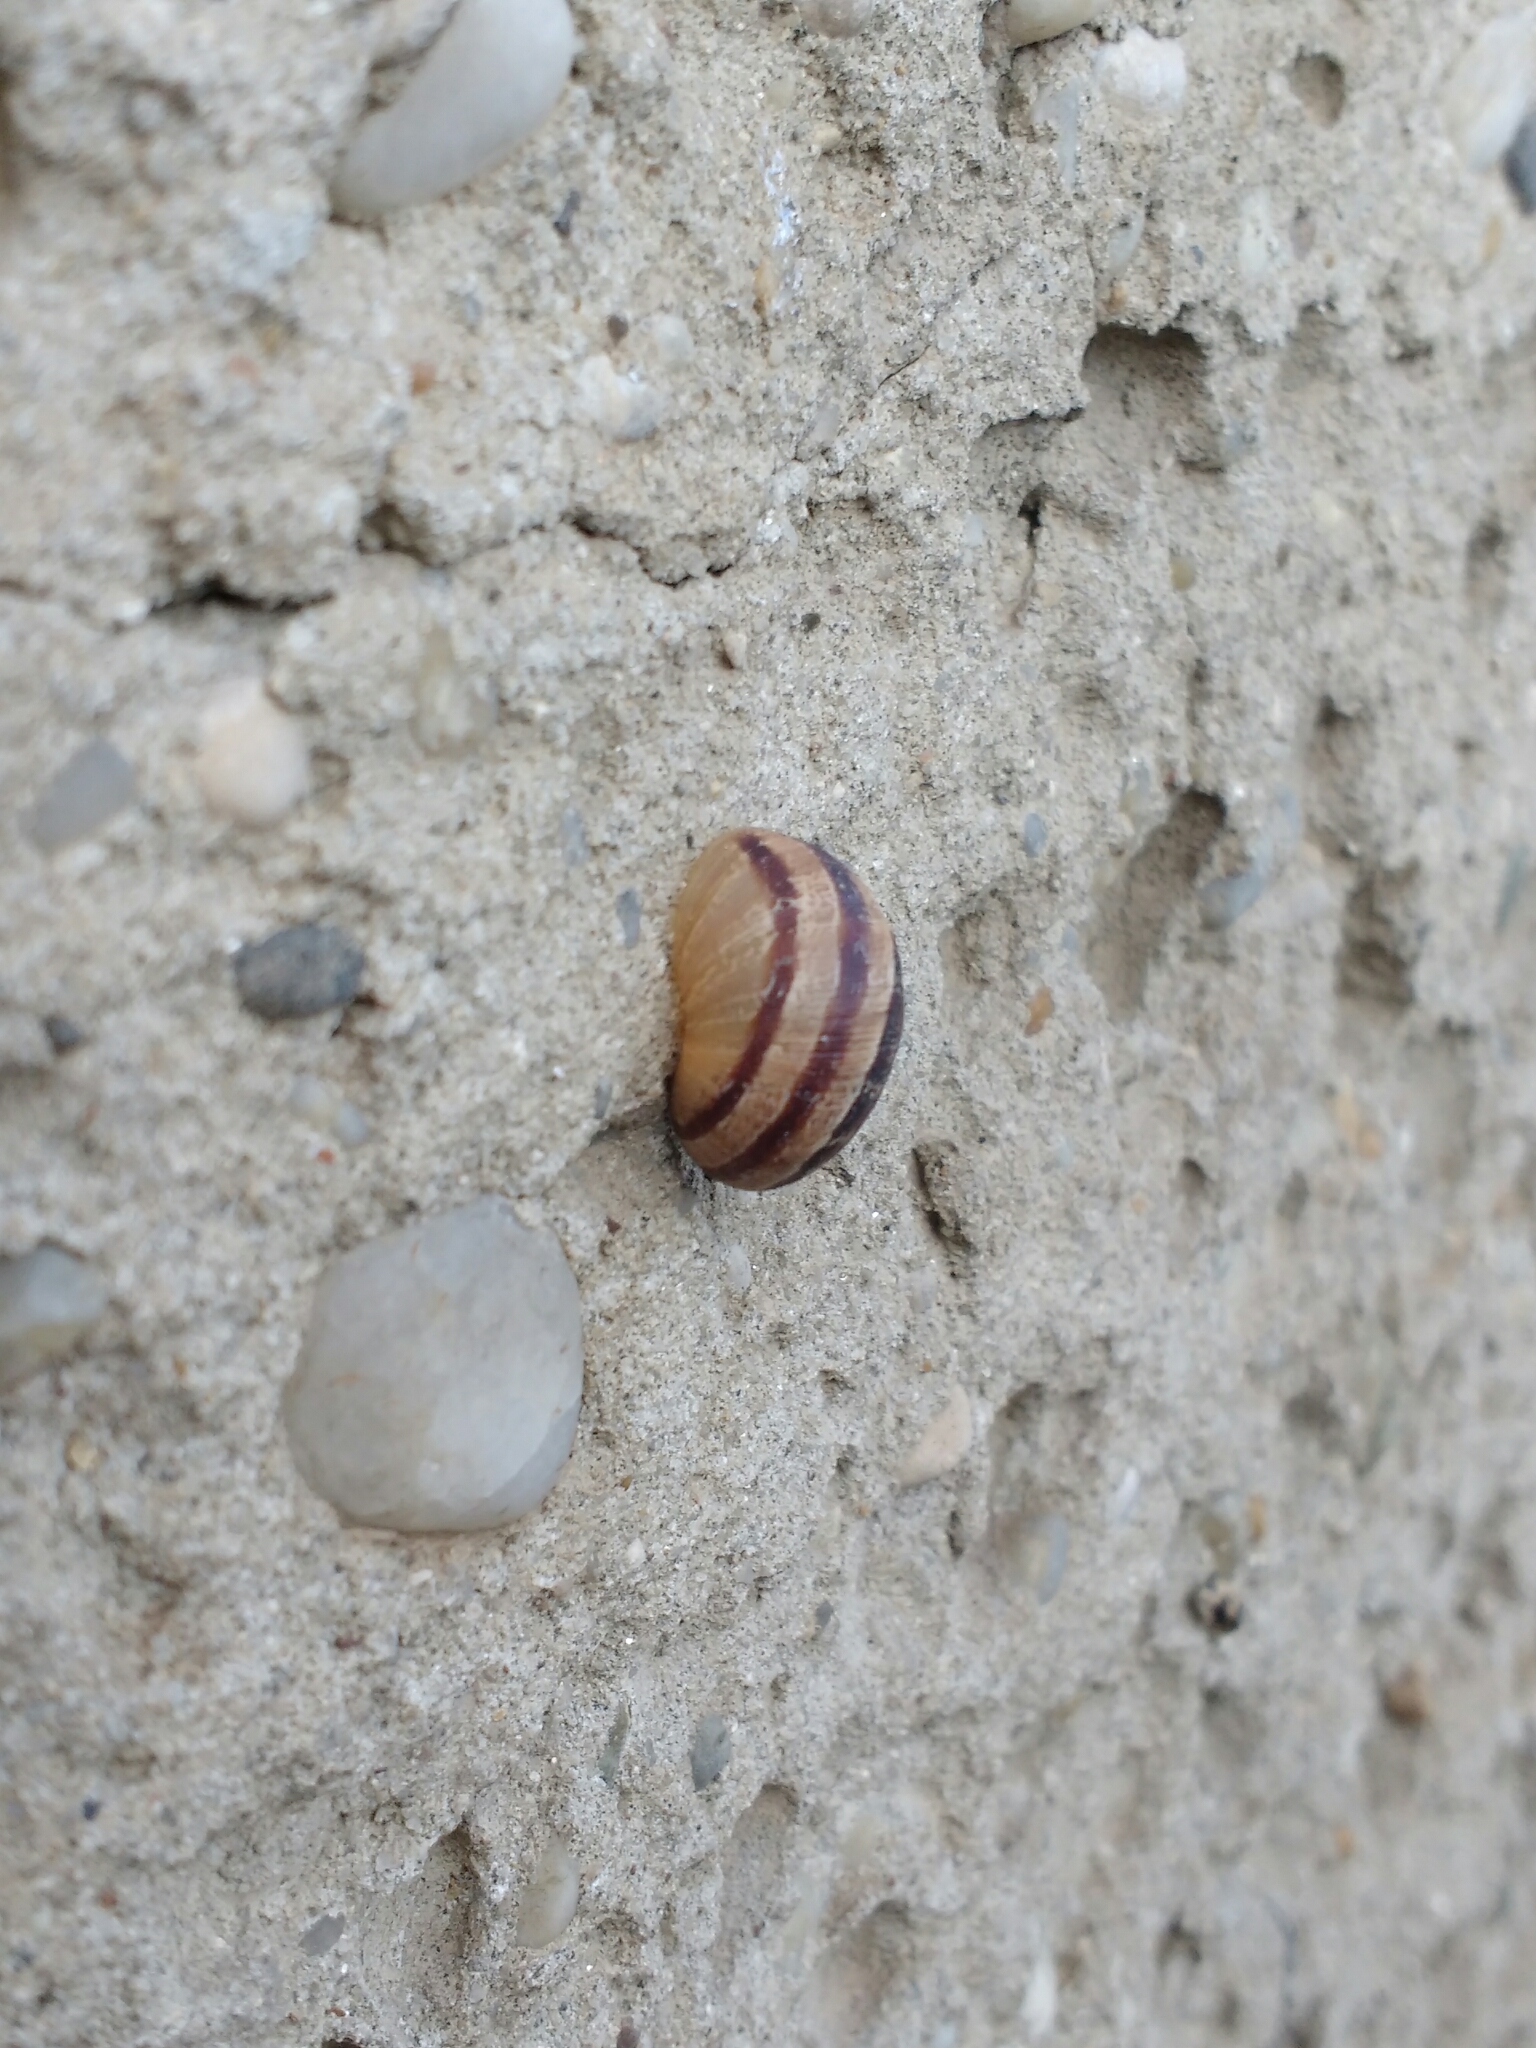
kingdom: Animalia
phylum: Mollusca
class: Gastropoda
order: Stylommatophora
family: Helicidae
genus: Cornu
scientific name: Cornu aspersum
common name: Brown garden snail
